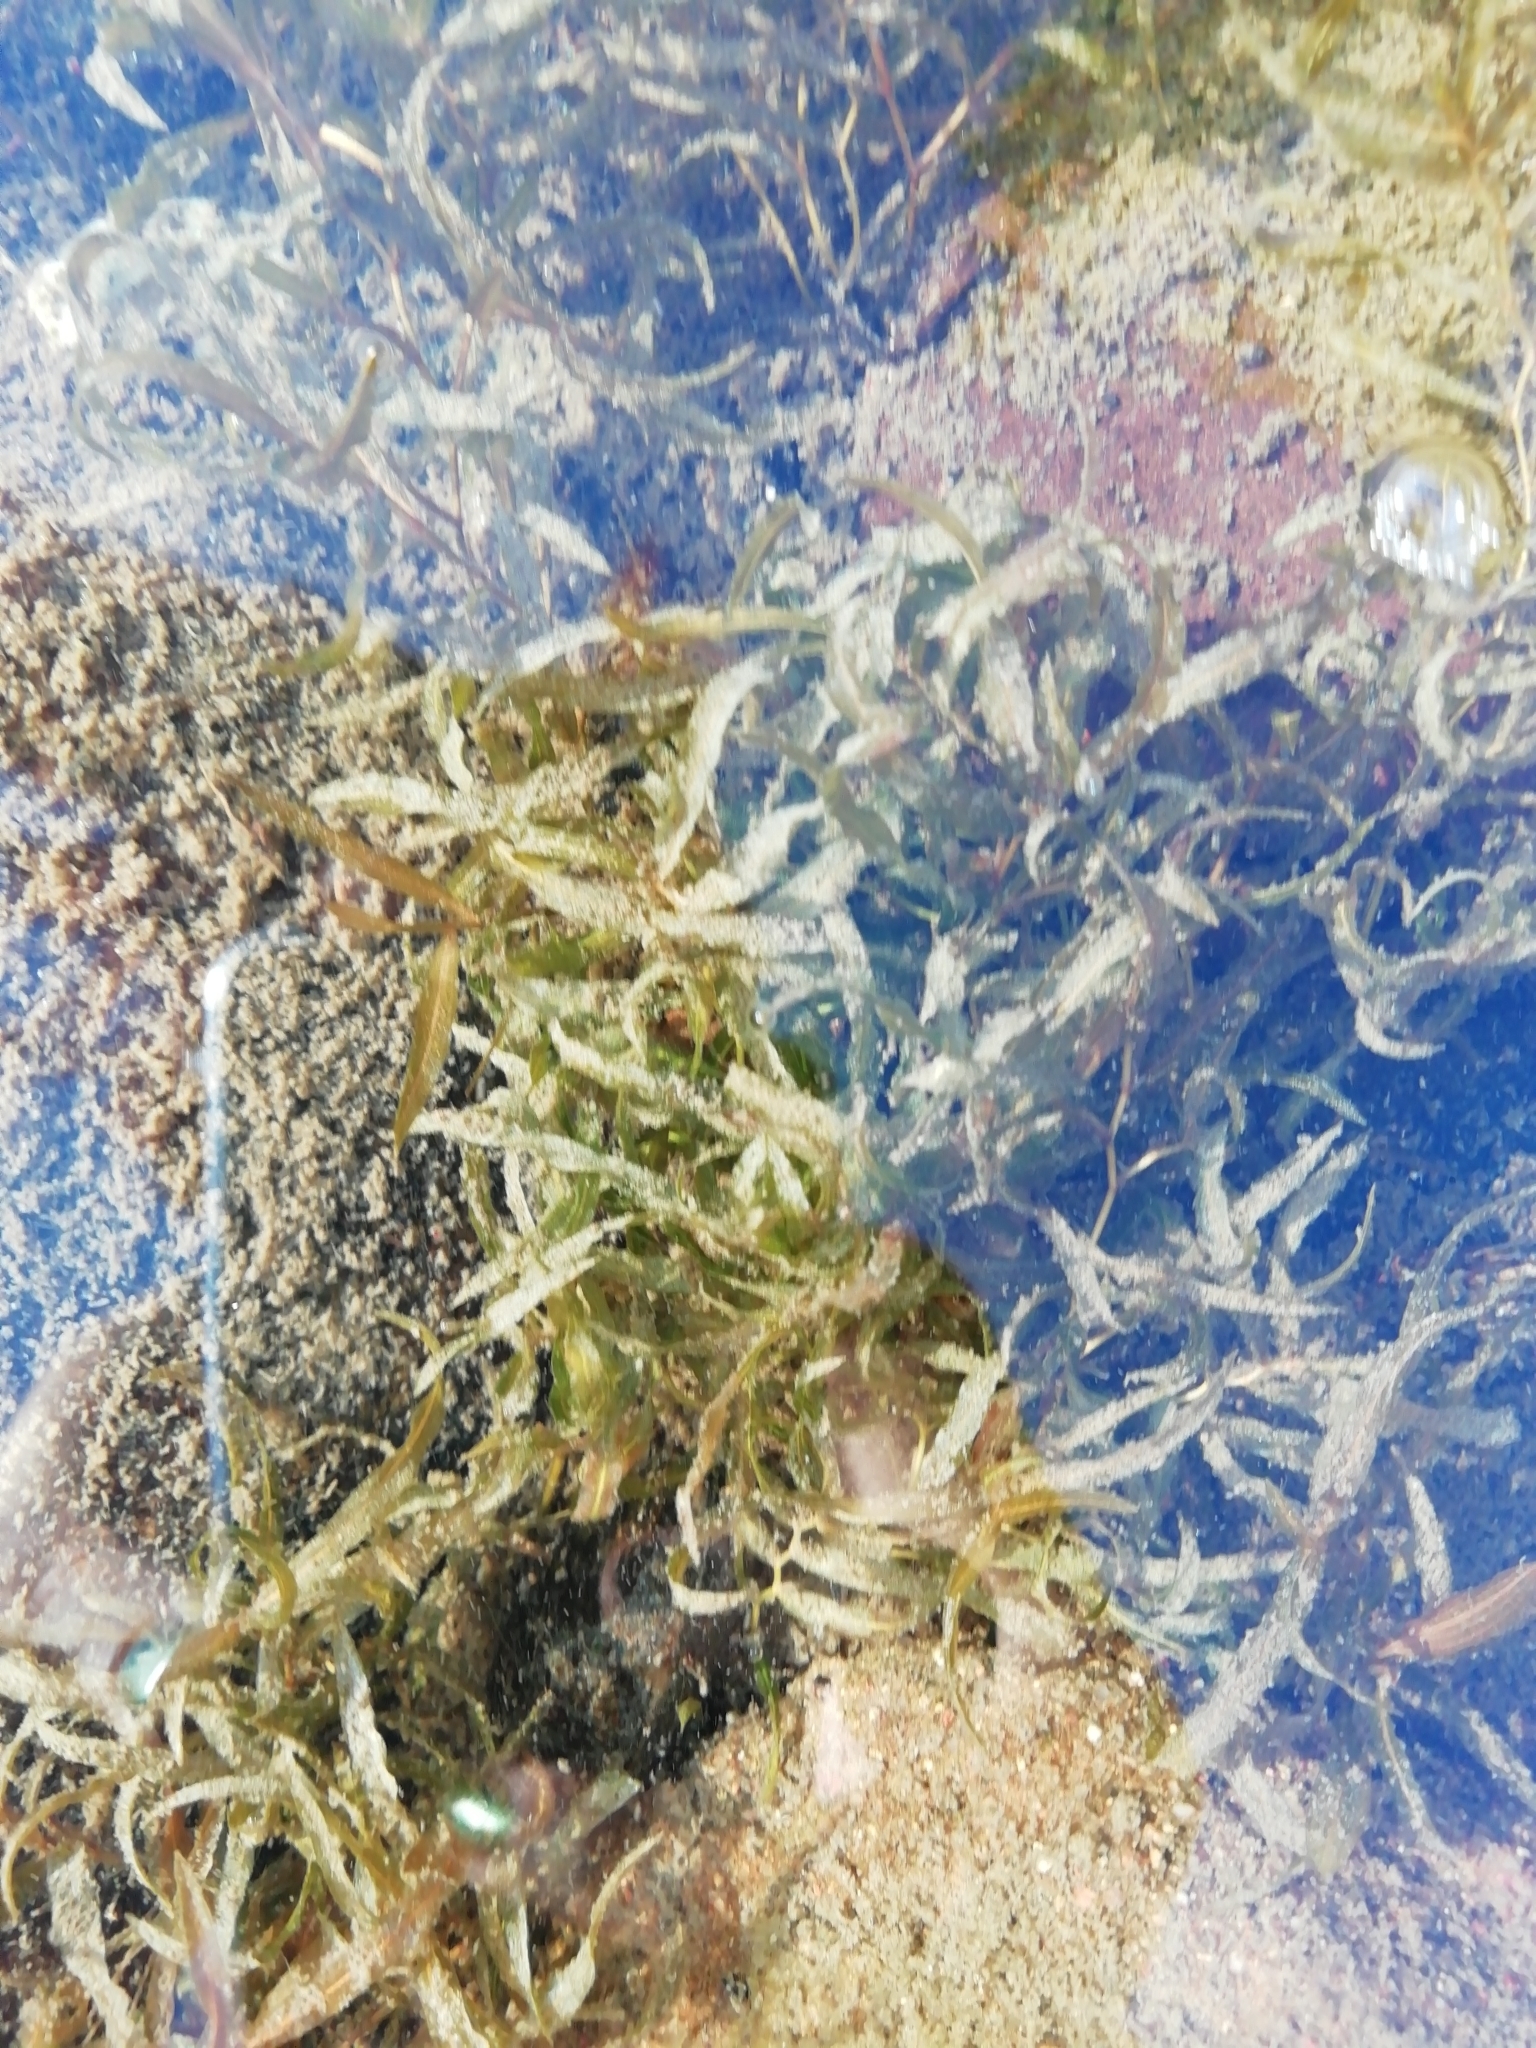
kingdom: Plantae
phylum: Tracheophyta
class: Liliopsida
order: Alismatales
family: Potamogetonaceae
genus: Potamogeton
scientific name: Potamogeton gramineus
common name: Various-leaved pondweed
